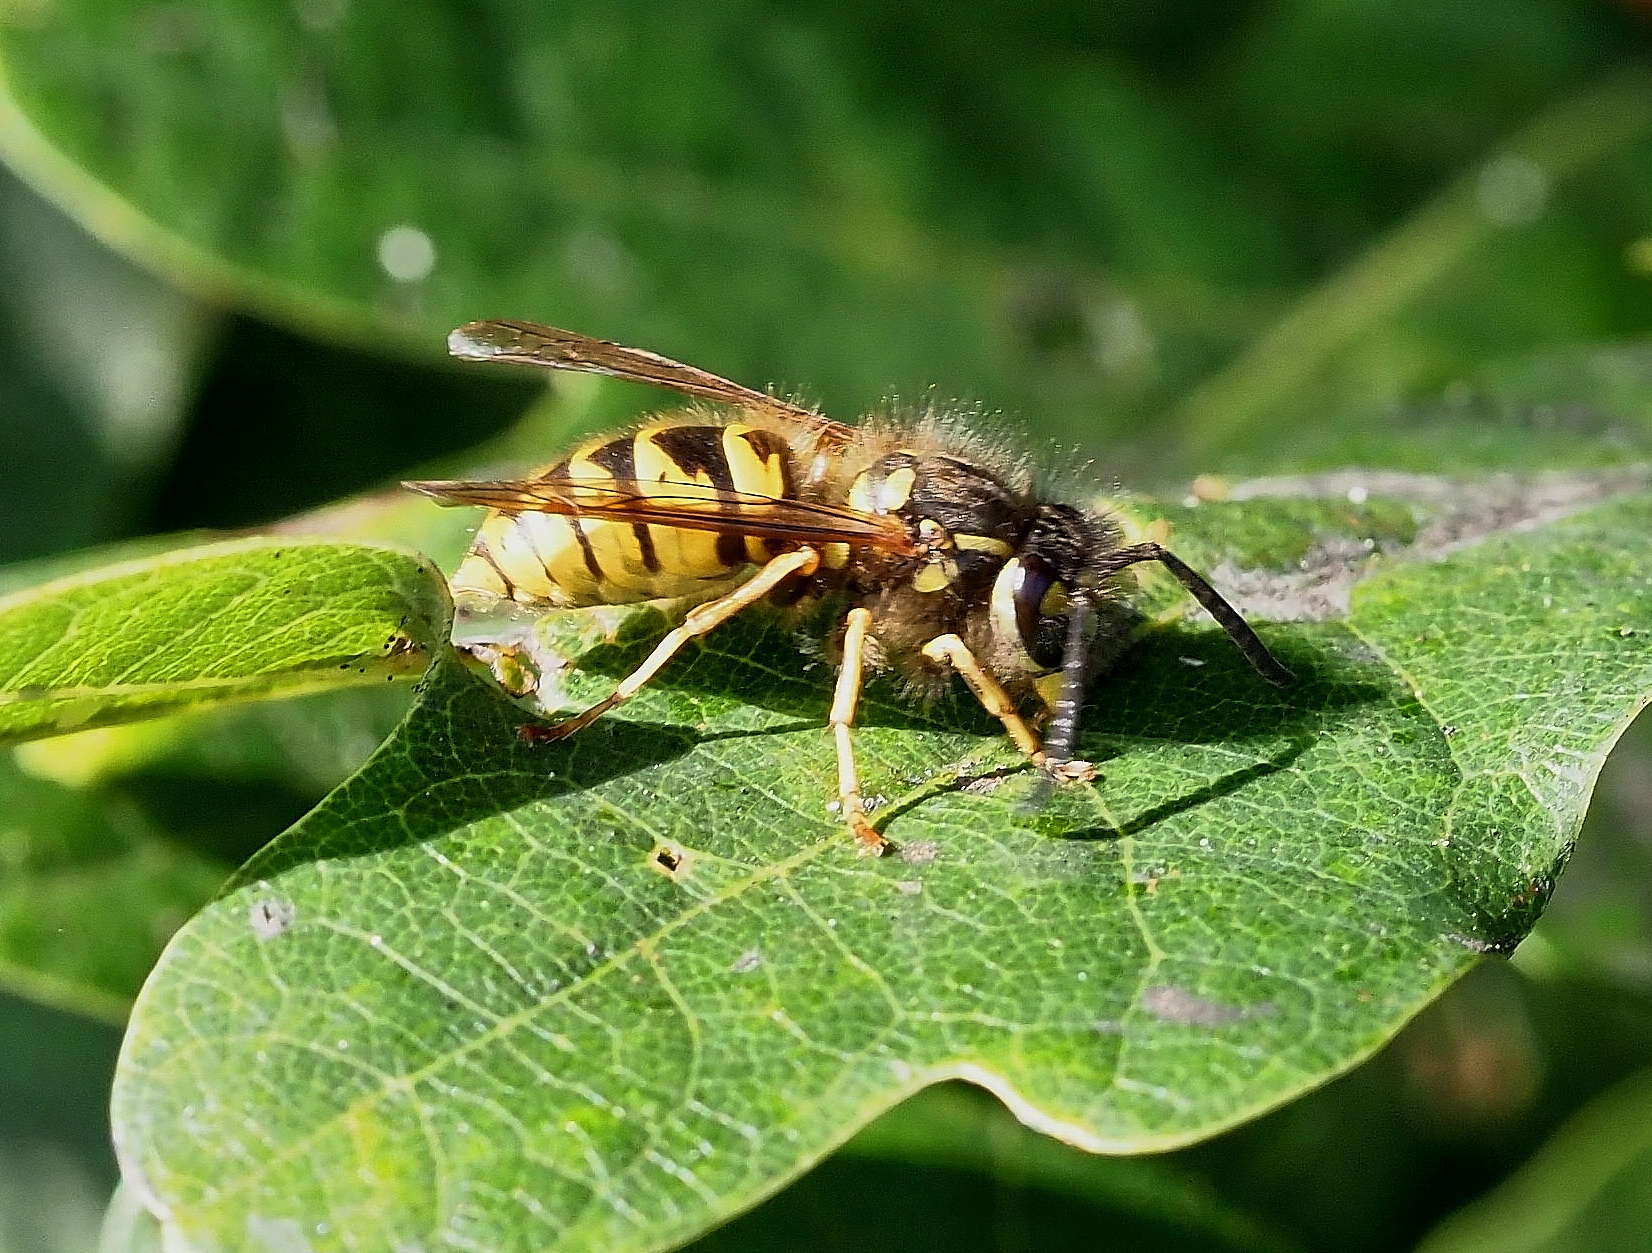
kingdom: Animalia
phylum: Arthropoda
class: Insecta
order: Hymenoptera
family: Vespidae
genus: Vespula
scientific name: Vespula vulgaris
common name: Common wasp
